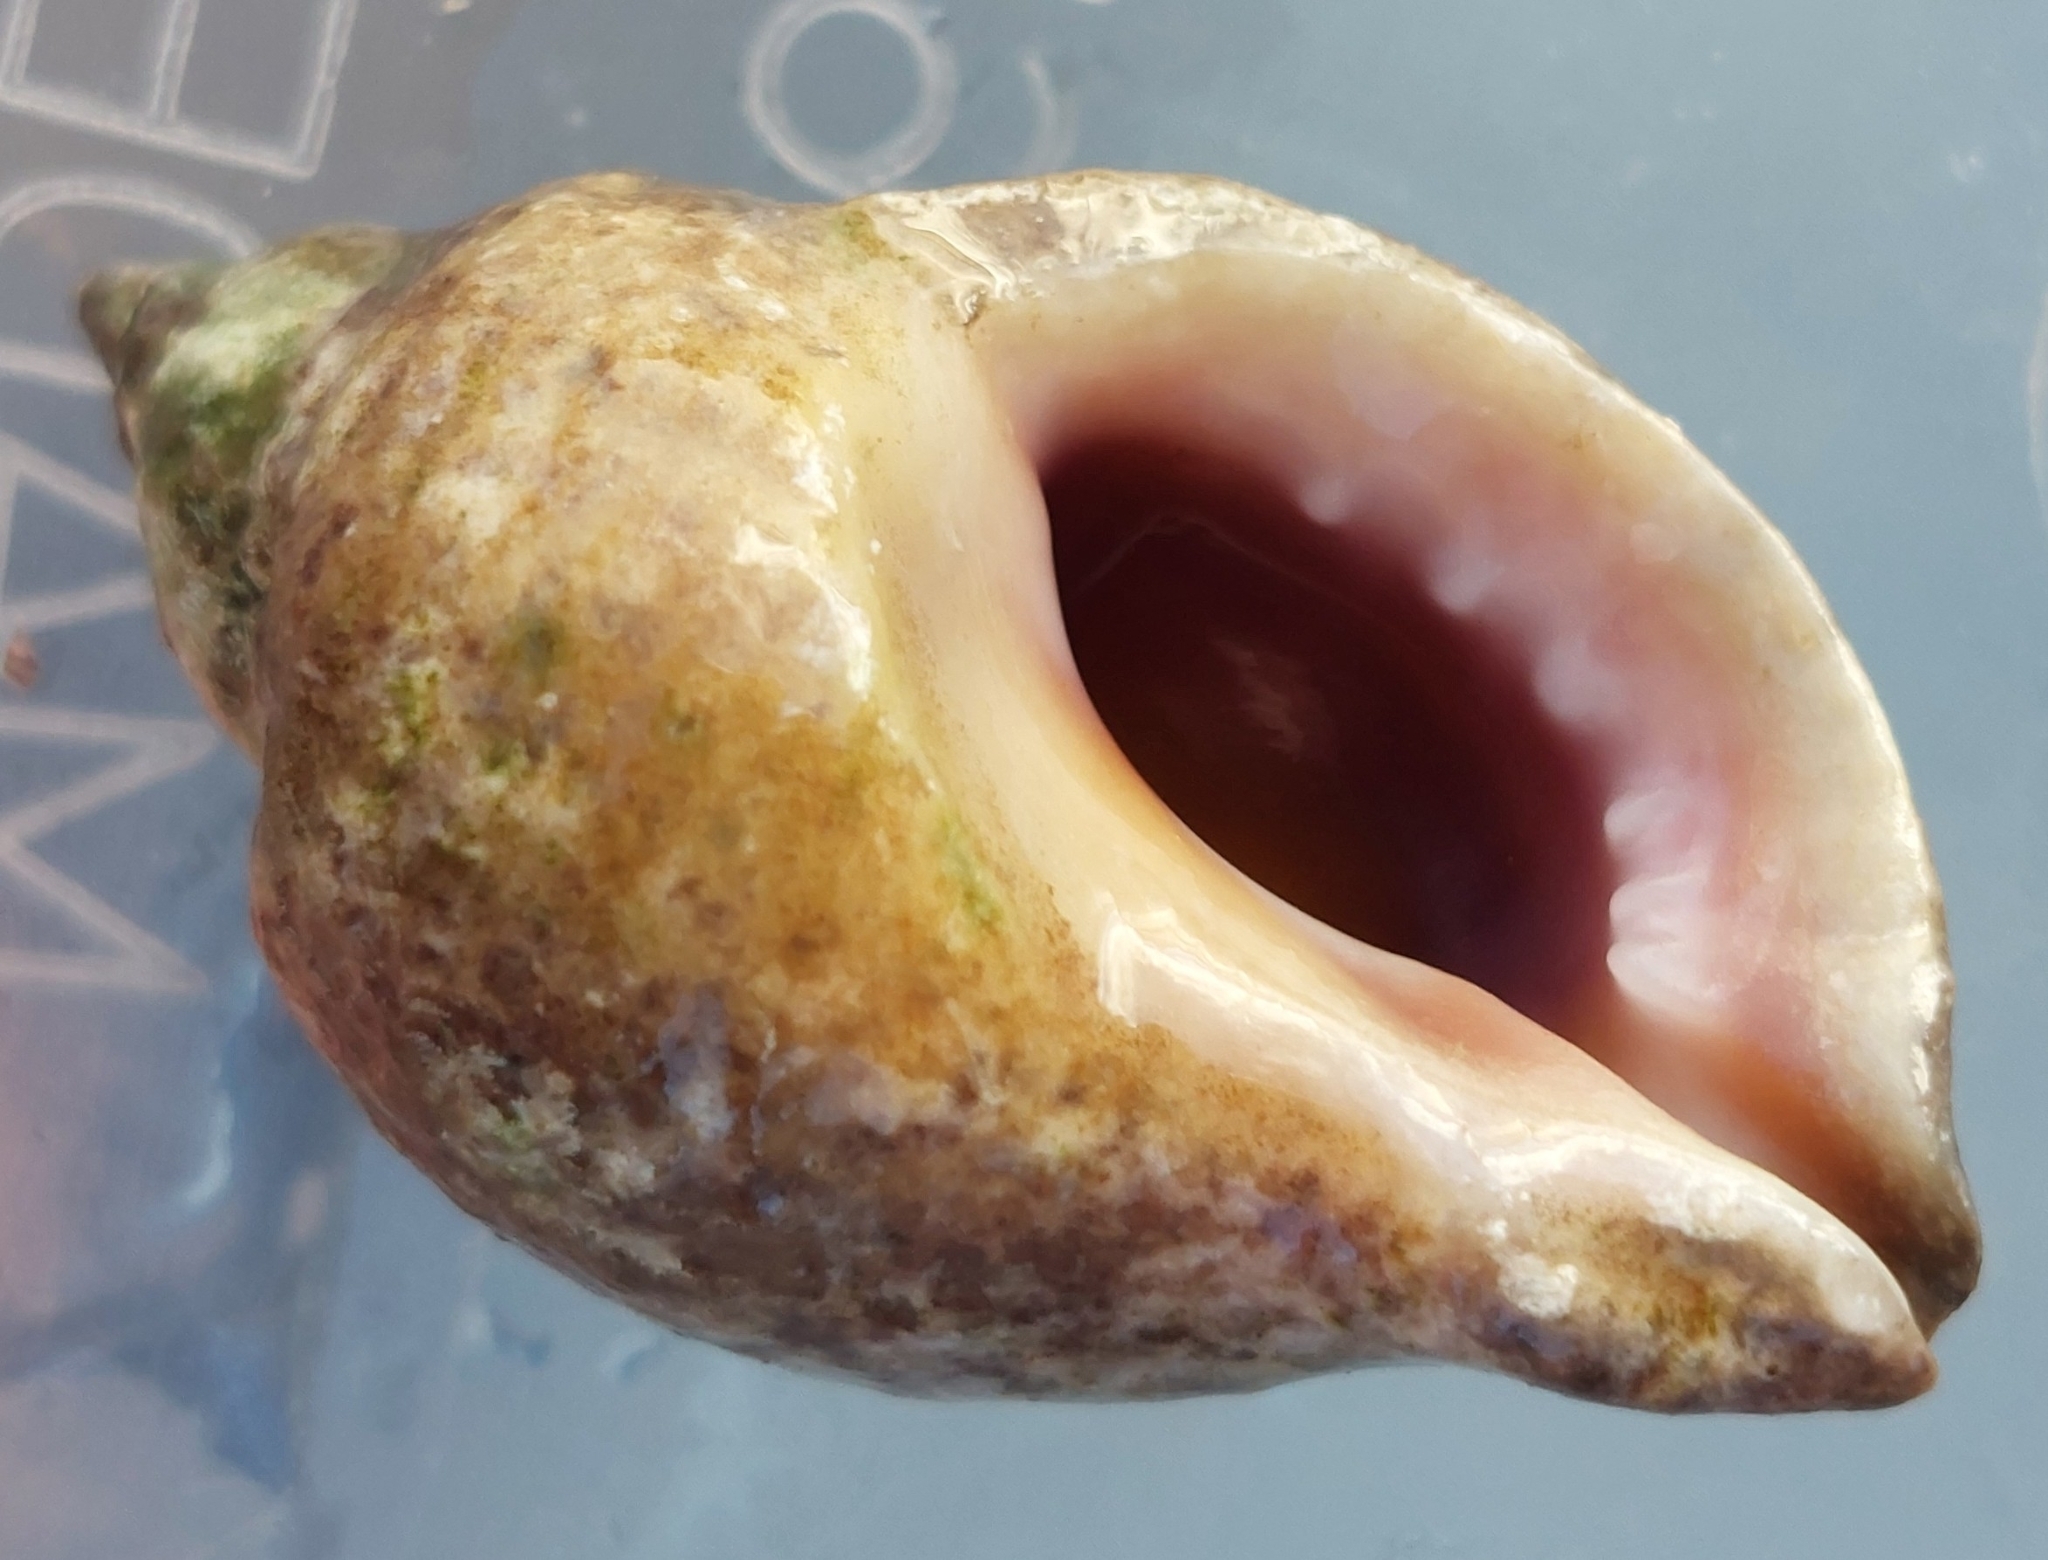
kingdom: Animalia
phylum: Mollusca
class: Gastropoda
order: Neogastropoda
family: Muricidae
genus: Nucella
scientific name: Nucella lapillus
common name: Dog whelk
